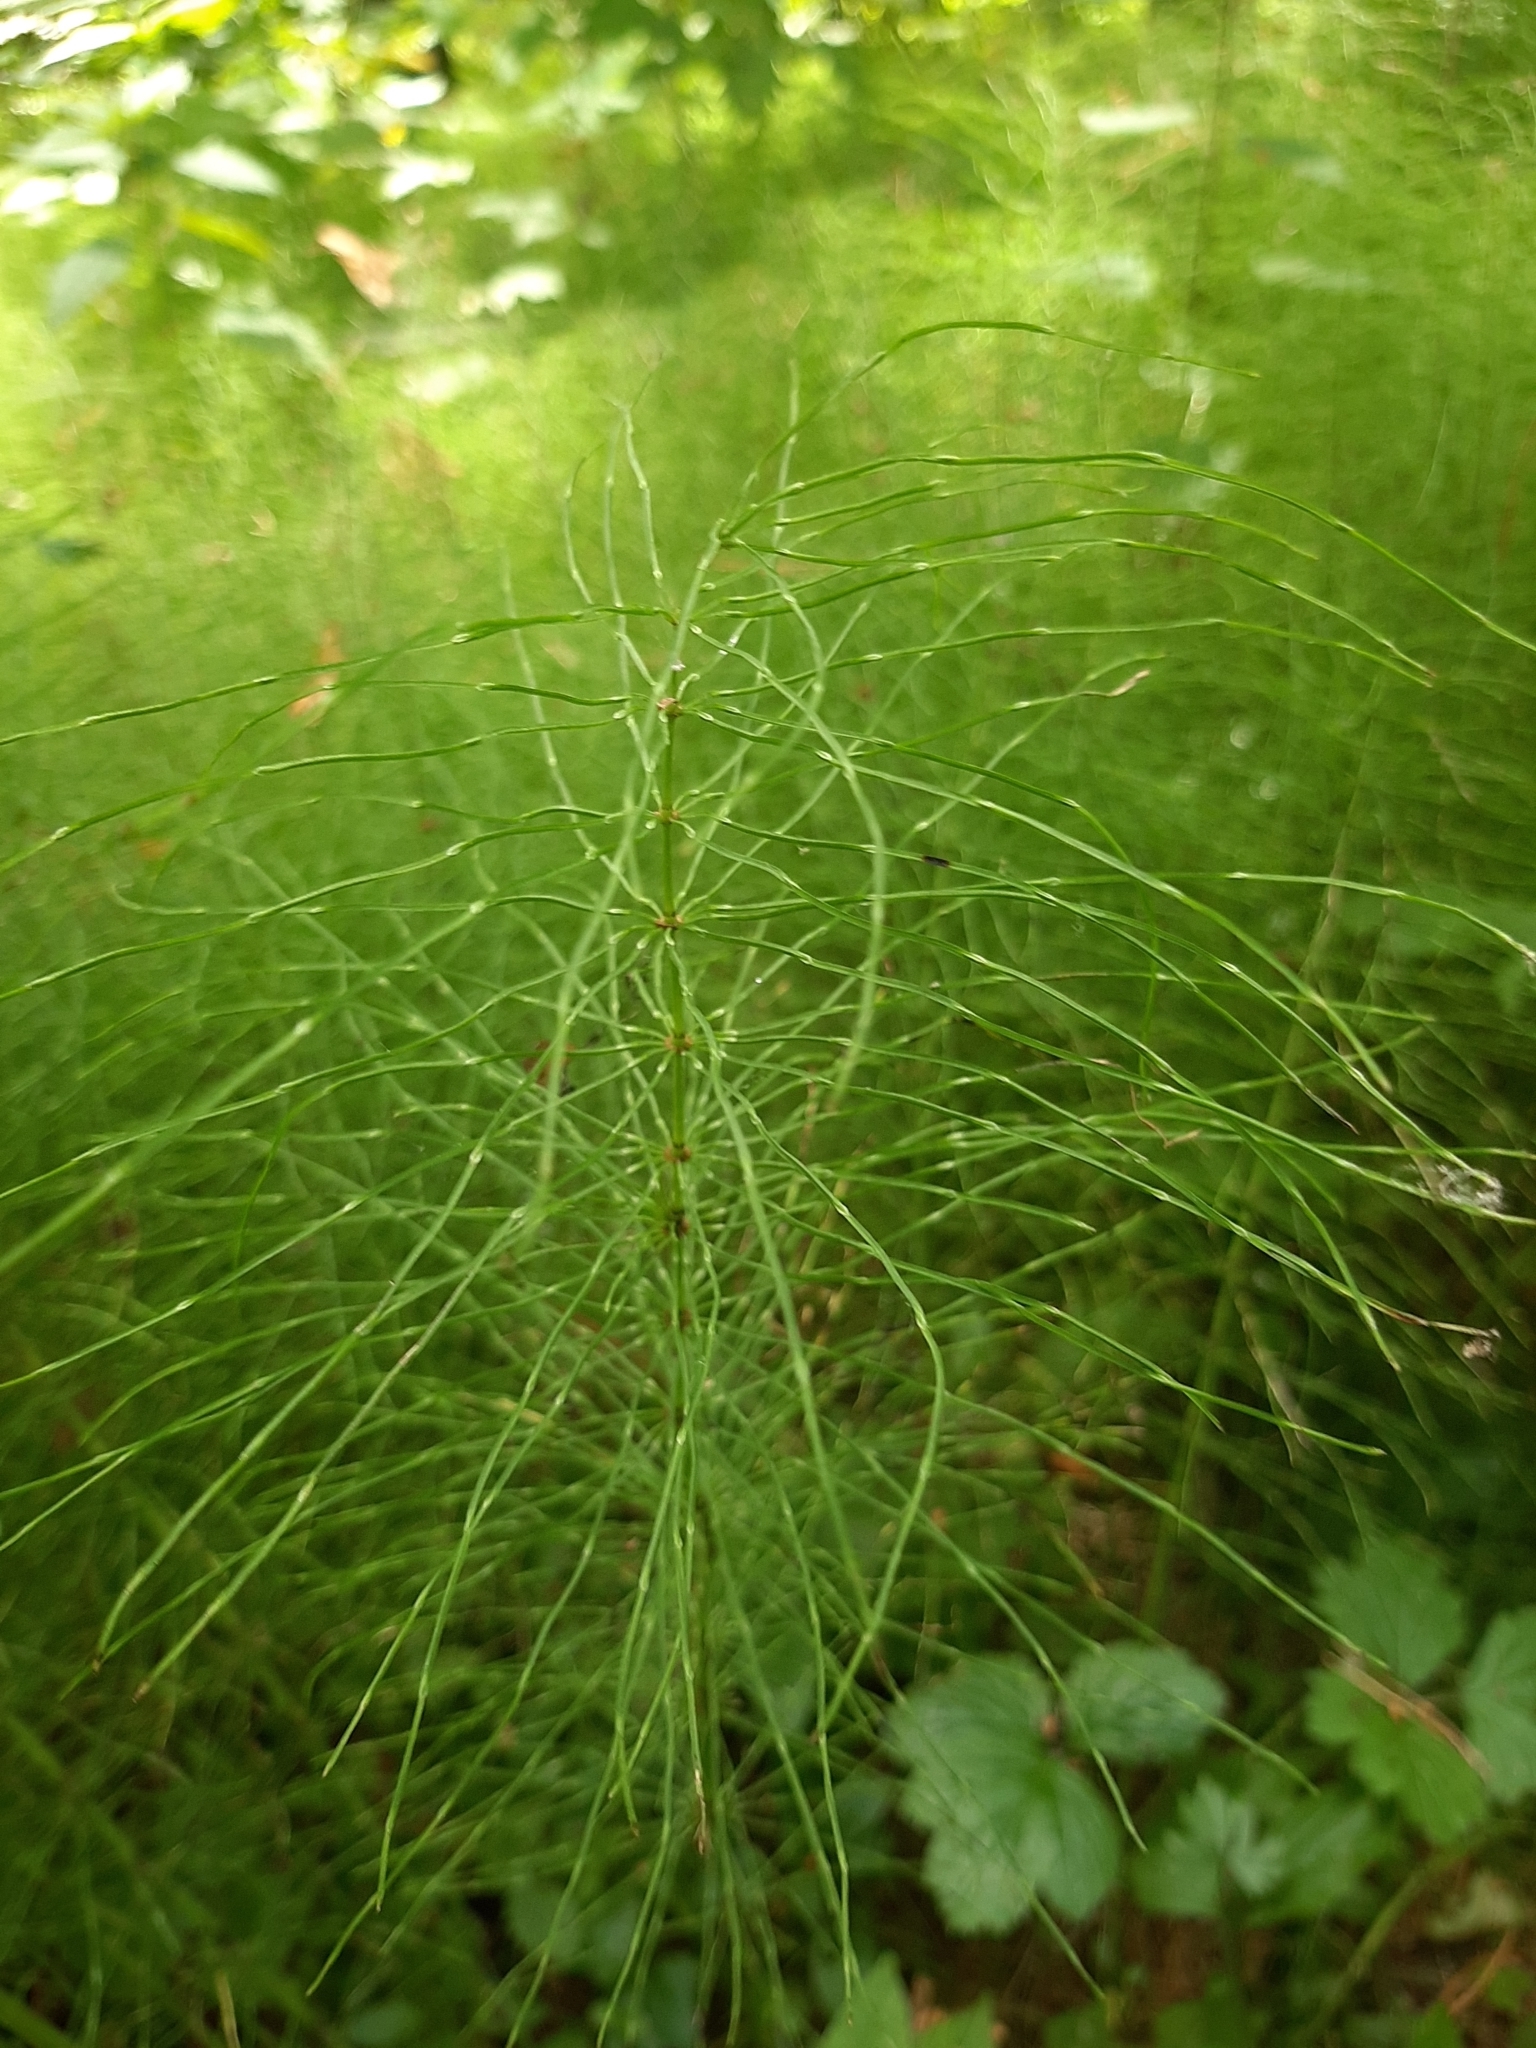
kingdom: Plantae
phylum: Tracheophyta
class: Polypodiopsida
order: Equisetales
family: Equisetaceae
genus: Equisetum
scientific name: Equisetum pratense
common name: Meadow horsetail
